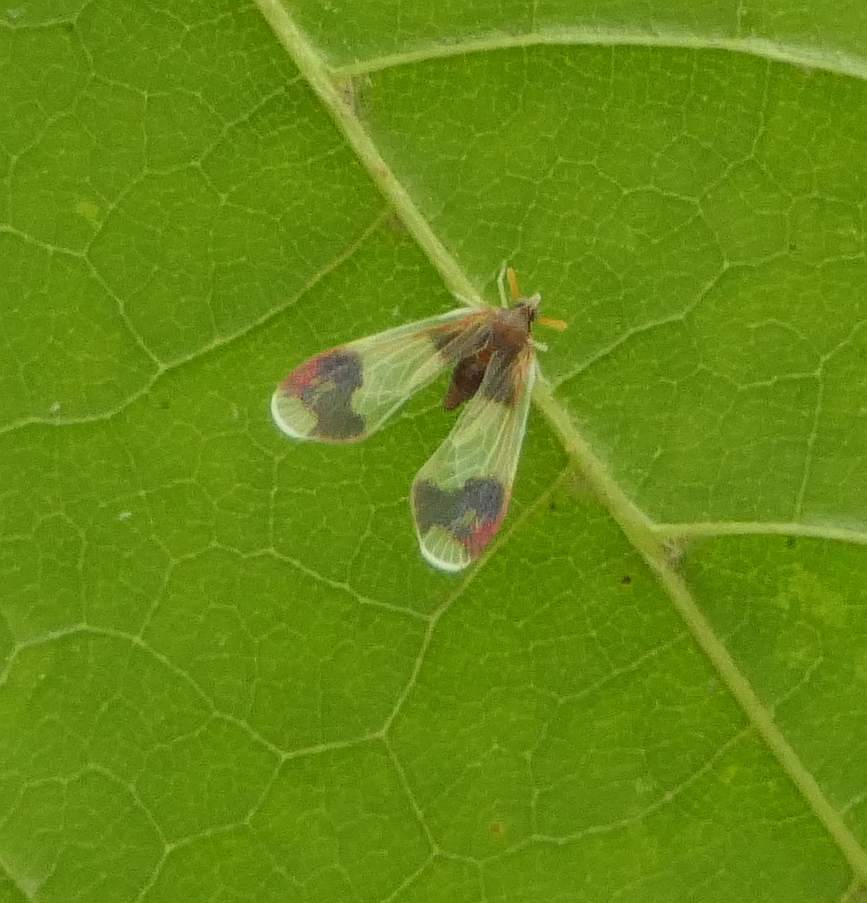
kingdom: Animalia
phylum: Arthropoda
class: Insecta
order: Hemiptera
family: Derbidae
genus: Anotia
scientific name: Anotia uhleri
